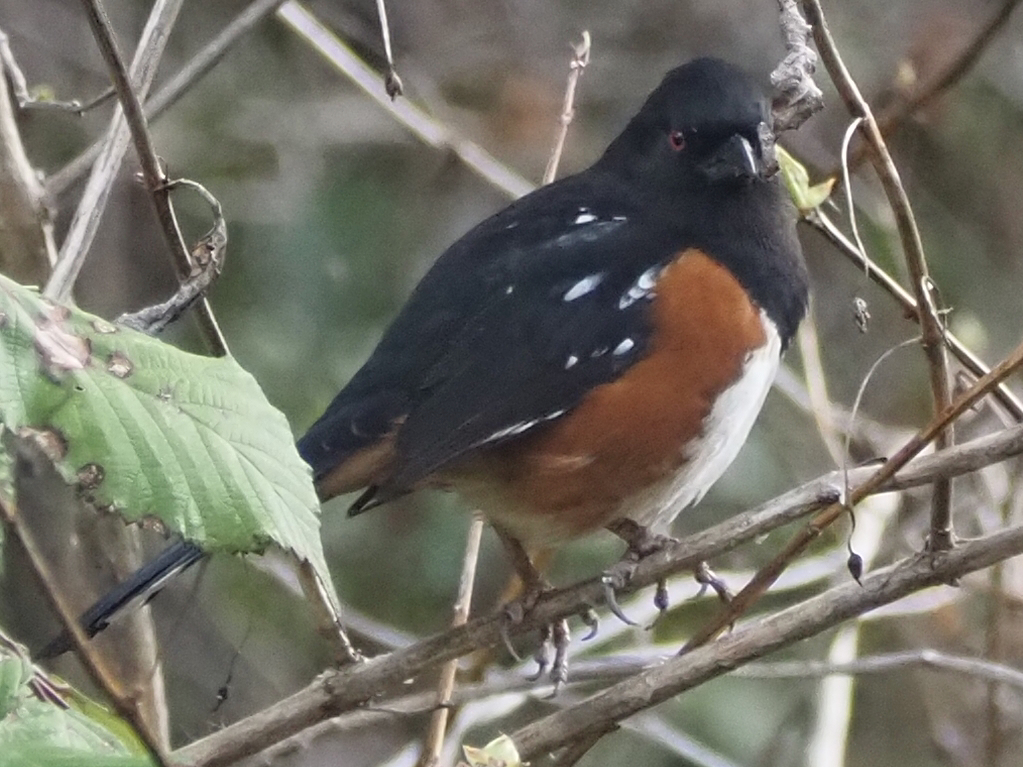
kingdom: Animalia
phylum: Chordata
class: Aves
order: Passeriformes
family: Passerellidae
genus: Pipilo
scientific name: Pipilo maculatus
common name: Spotted towhee
